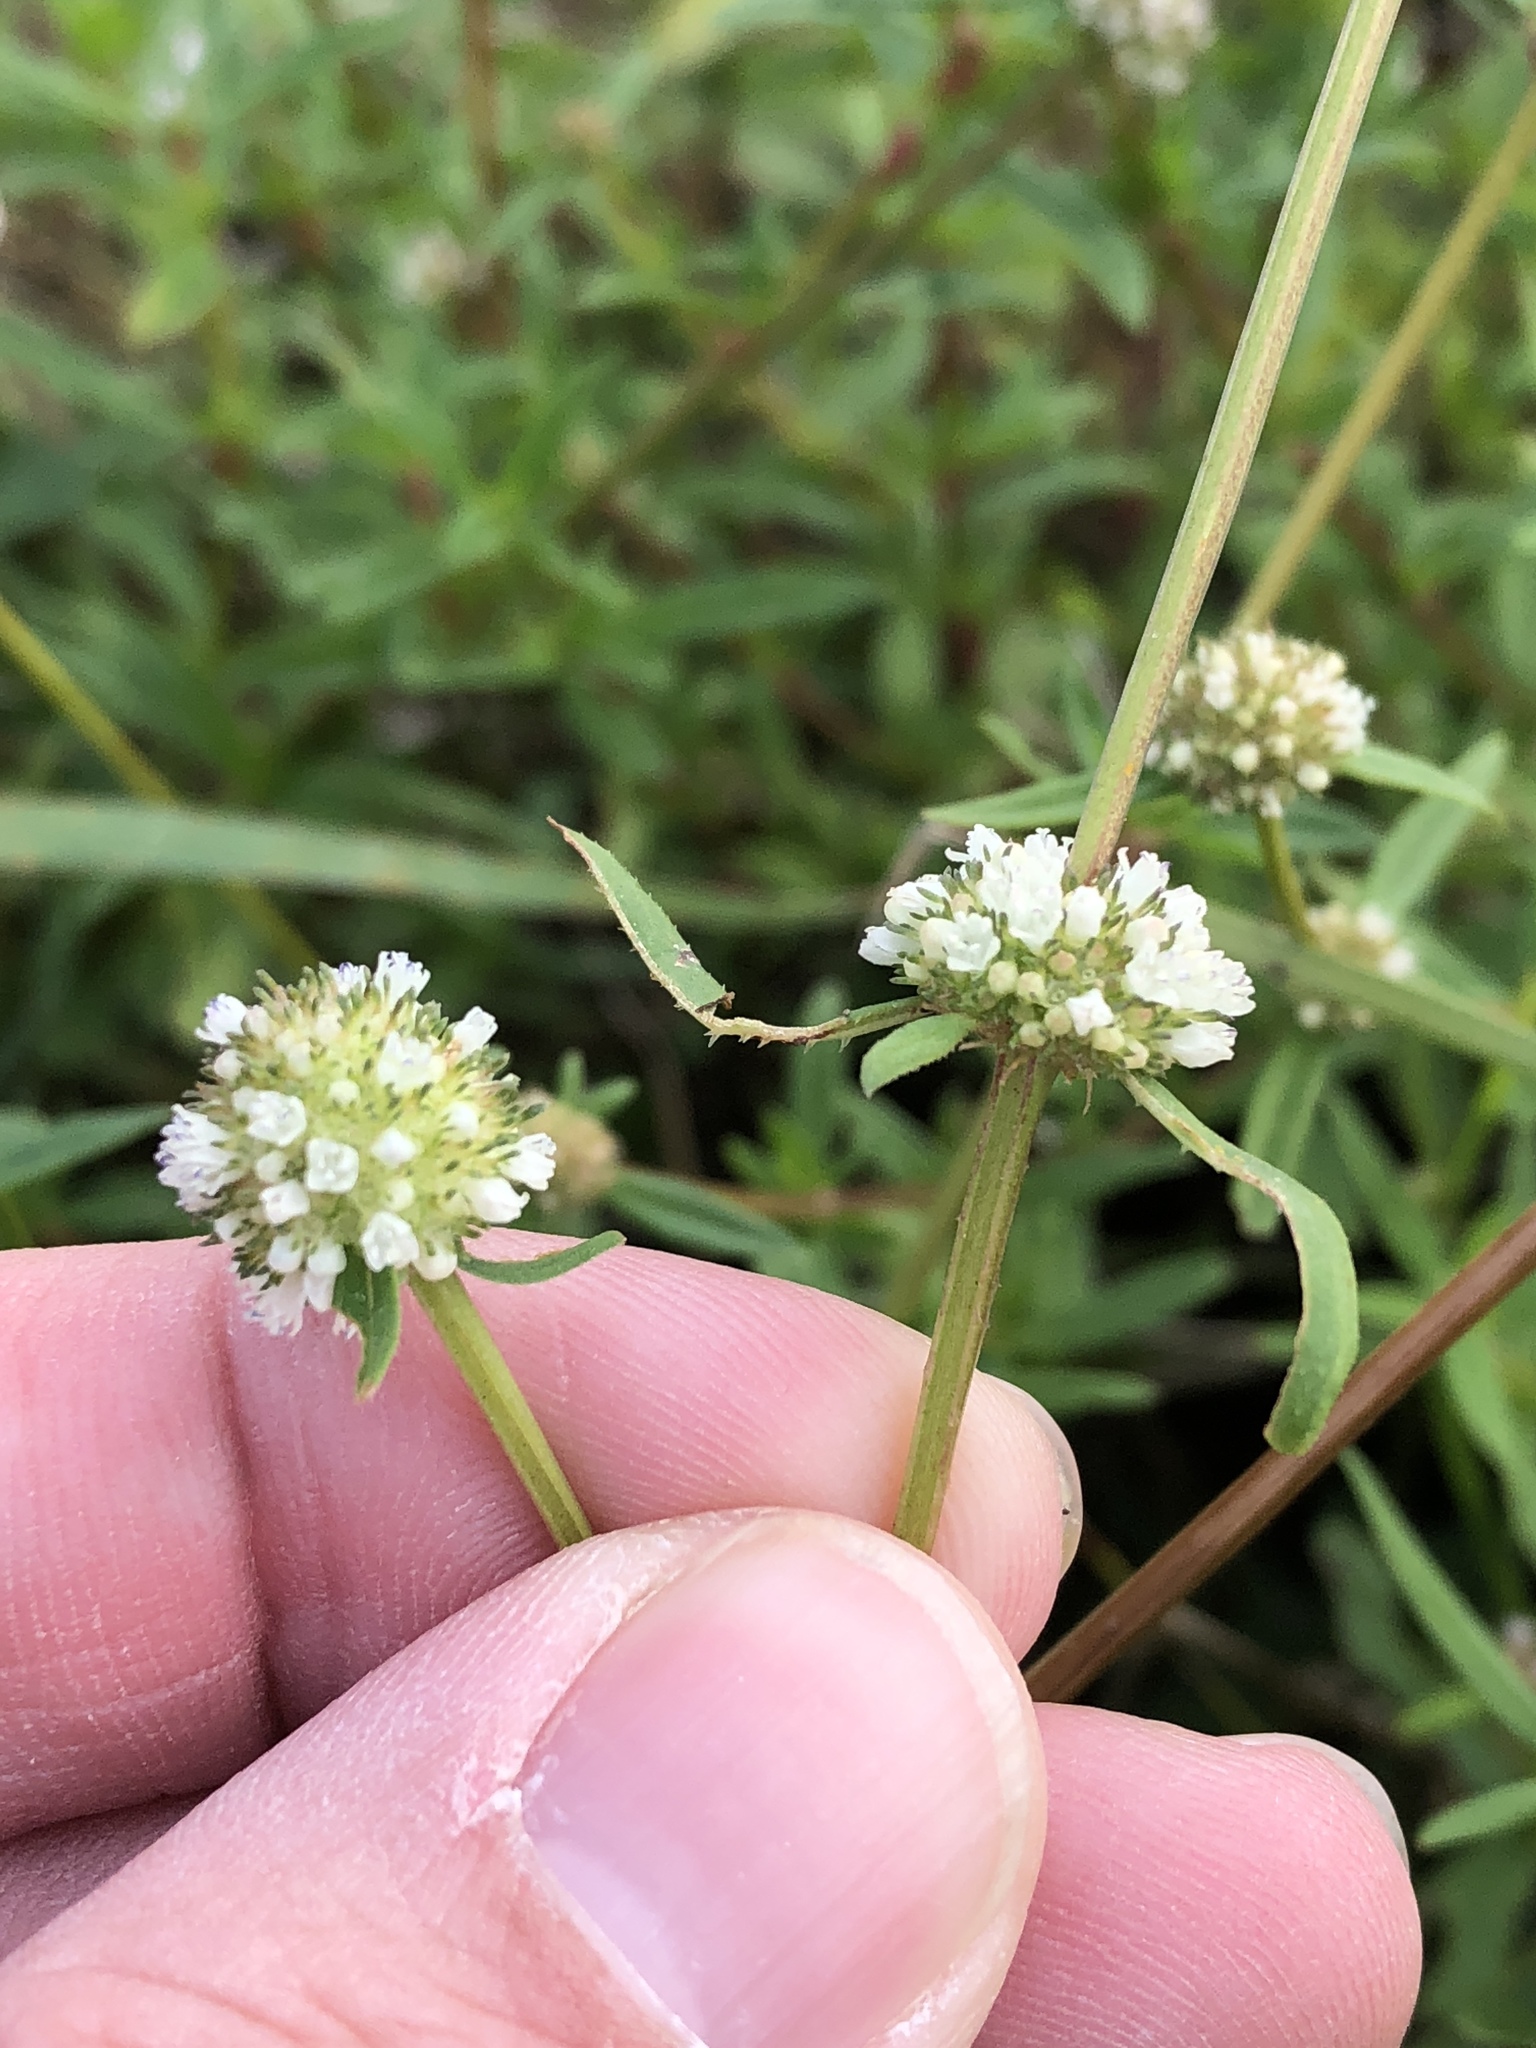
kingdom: Plantae
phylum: Tracheophyta
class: Magnoliopsida
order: Gentianales
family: Rubiaceae
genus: Spermacoce
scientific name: Spermacoce verticillata
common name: Shrubby false buttonweed
